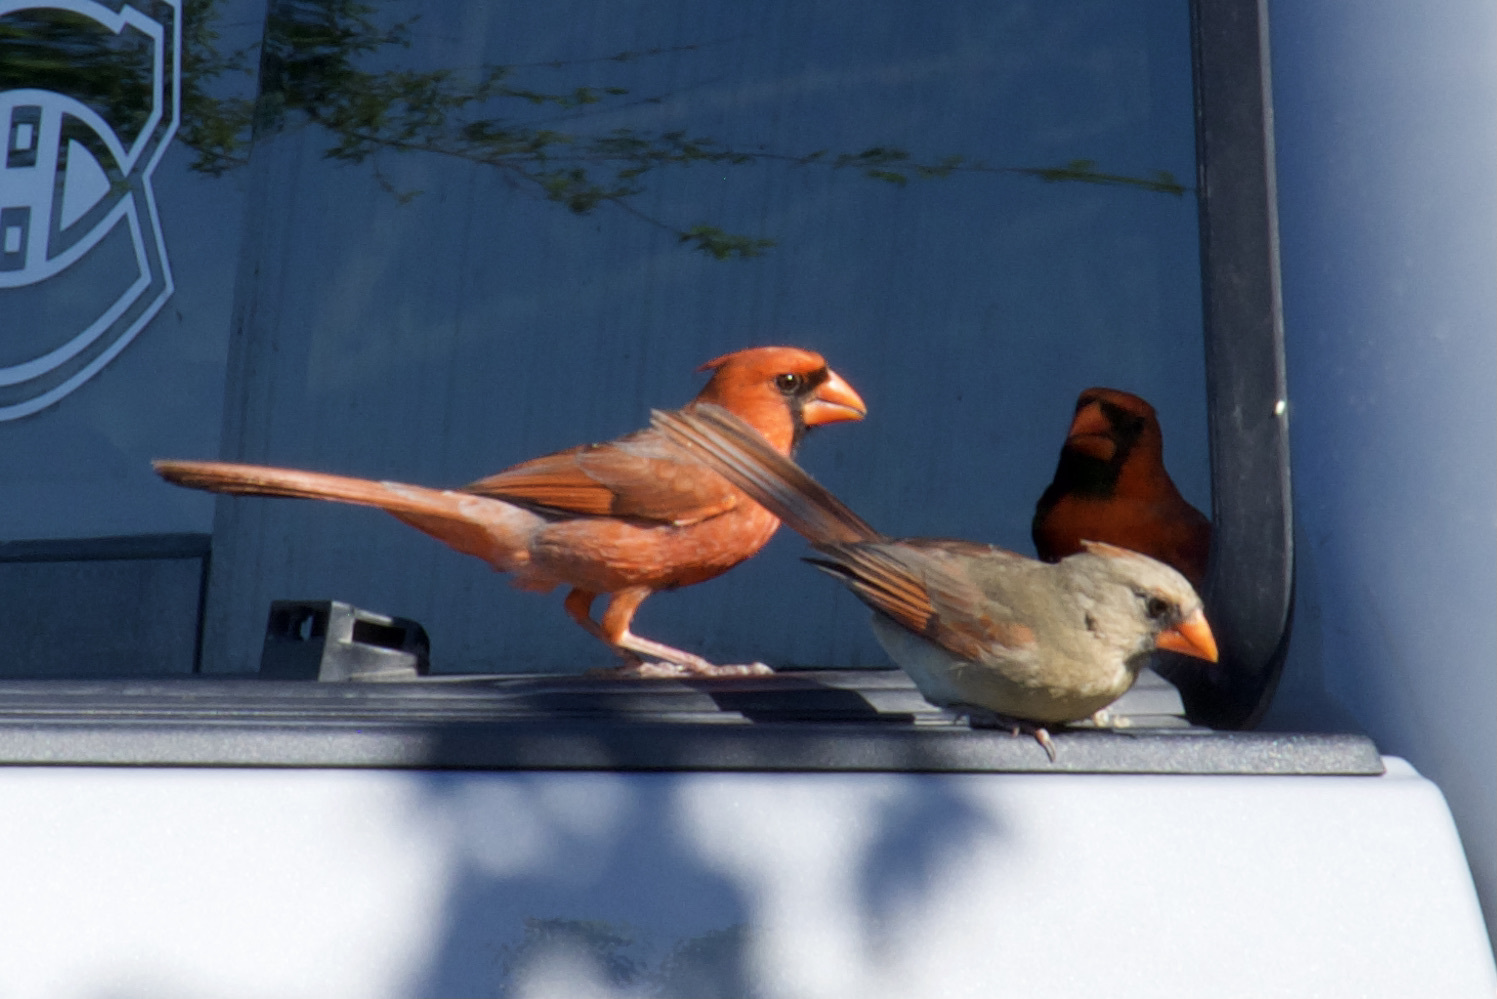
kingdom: Animalia
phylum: Chordata
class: Aves
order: Passeriformes
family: Cardinalidae
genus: Cardinalis
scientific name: Cardinalis cardinalis
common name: Northern cardinal
